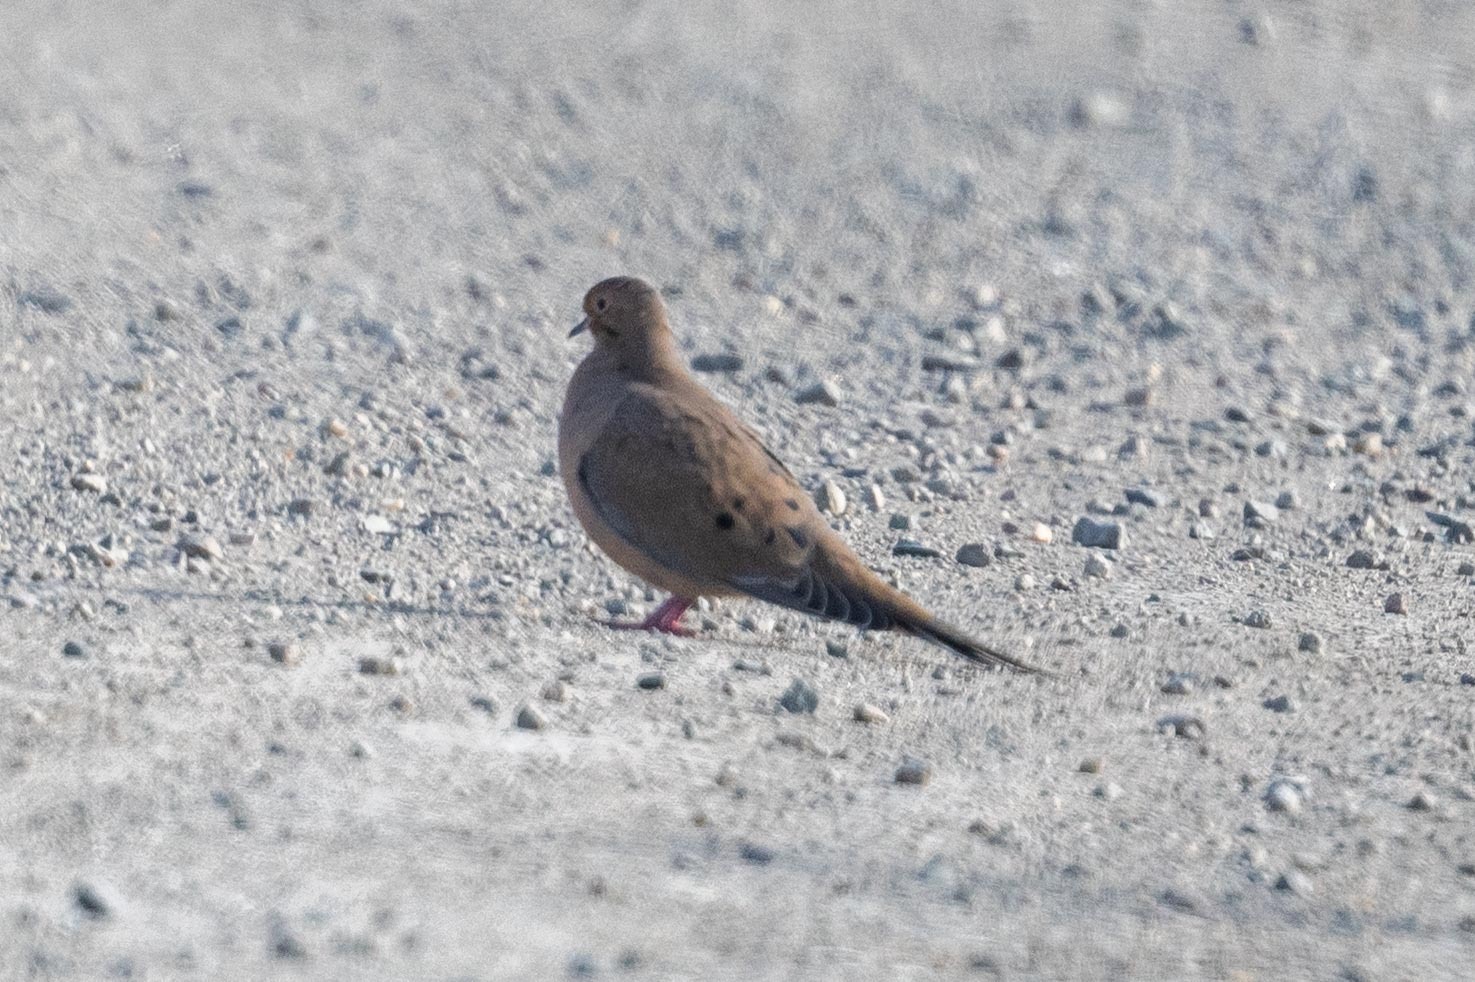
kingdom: Animalia
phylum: Chordata
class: Aves
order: Columbiformes
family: Columbidae
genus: Zenaida
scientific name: Zenaida macroura
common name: Mourning dove
